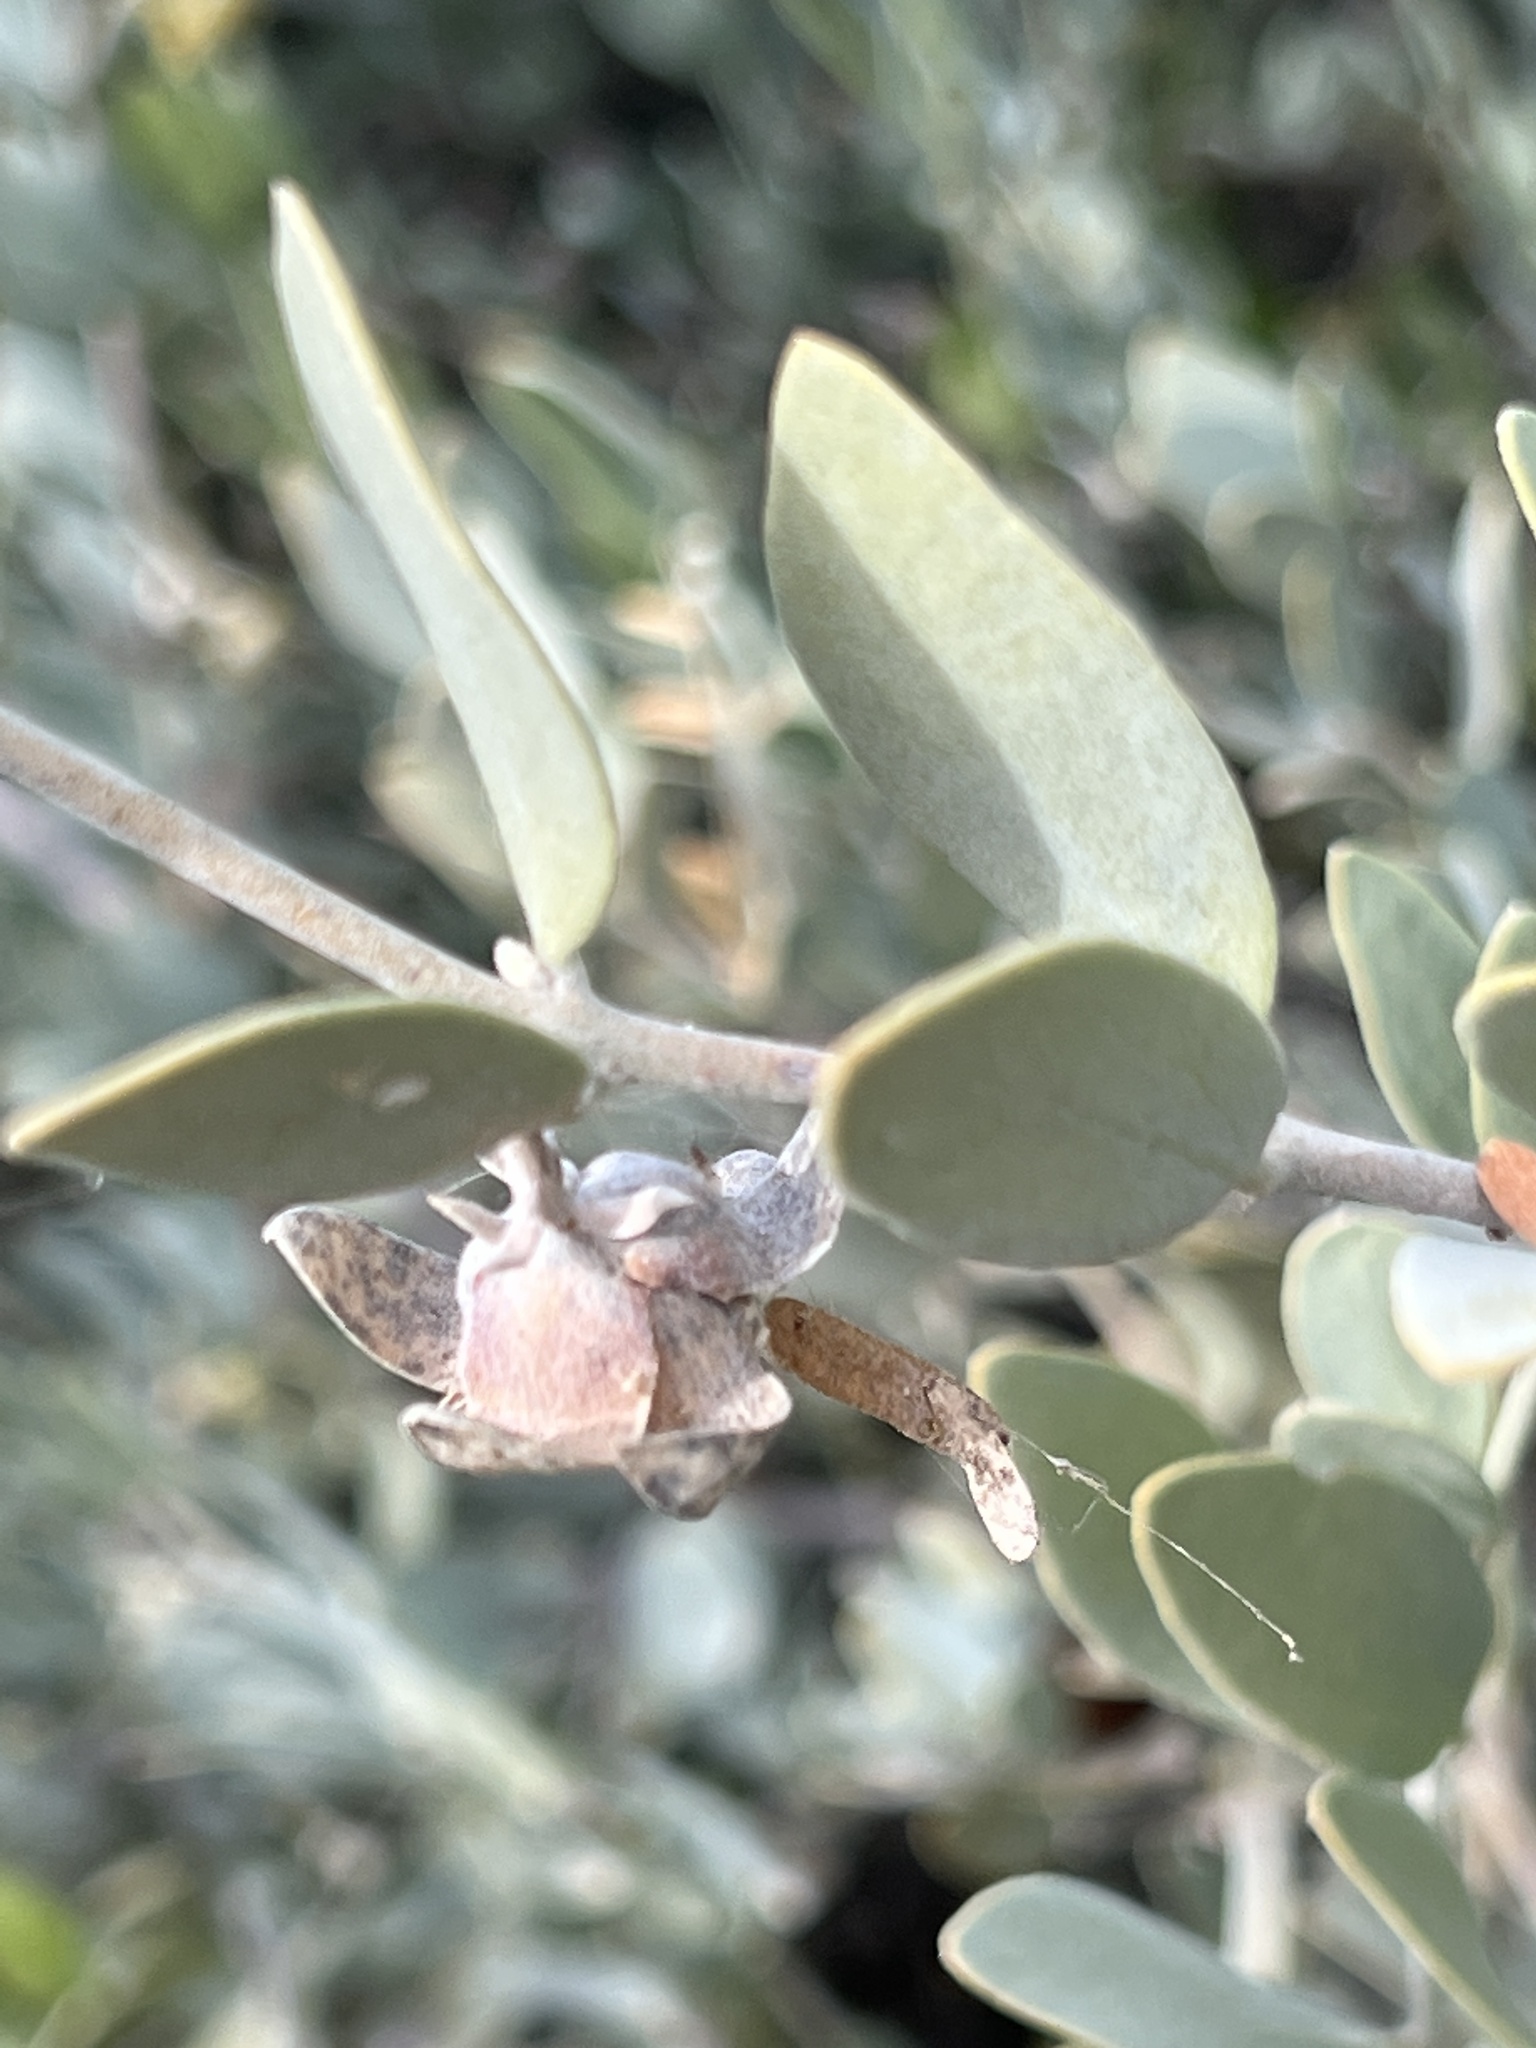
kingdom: Plantae
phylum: Tracheophyta
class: Magnoliopsida
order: Caryophyllales
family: Simmondsiaceae
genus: Simmondsia
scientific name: Simmondsia chinensis
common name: Jojoba
